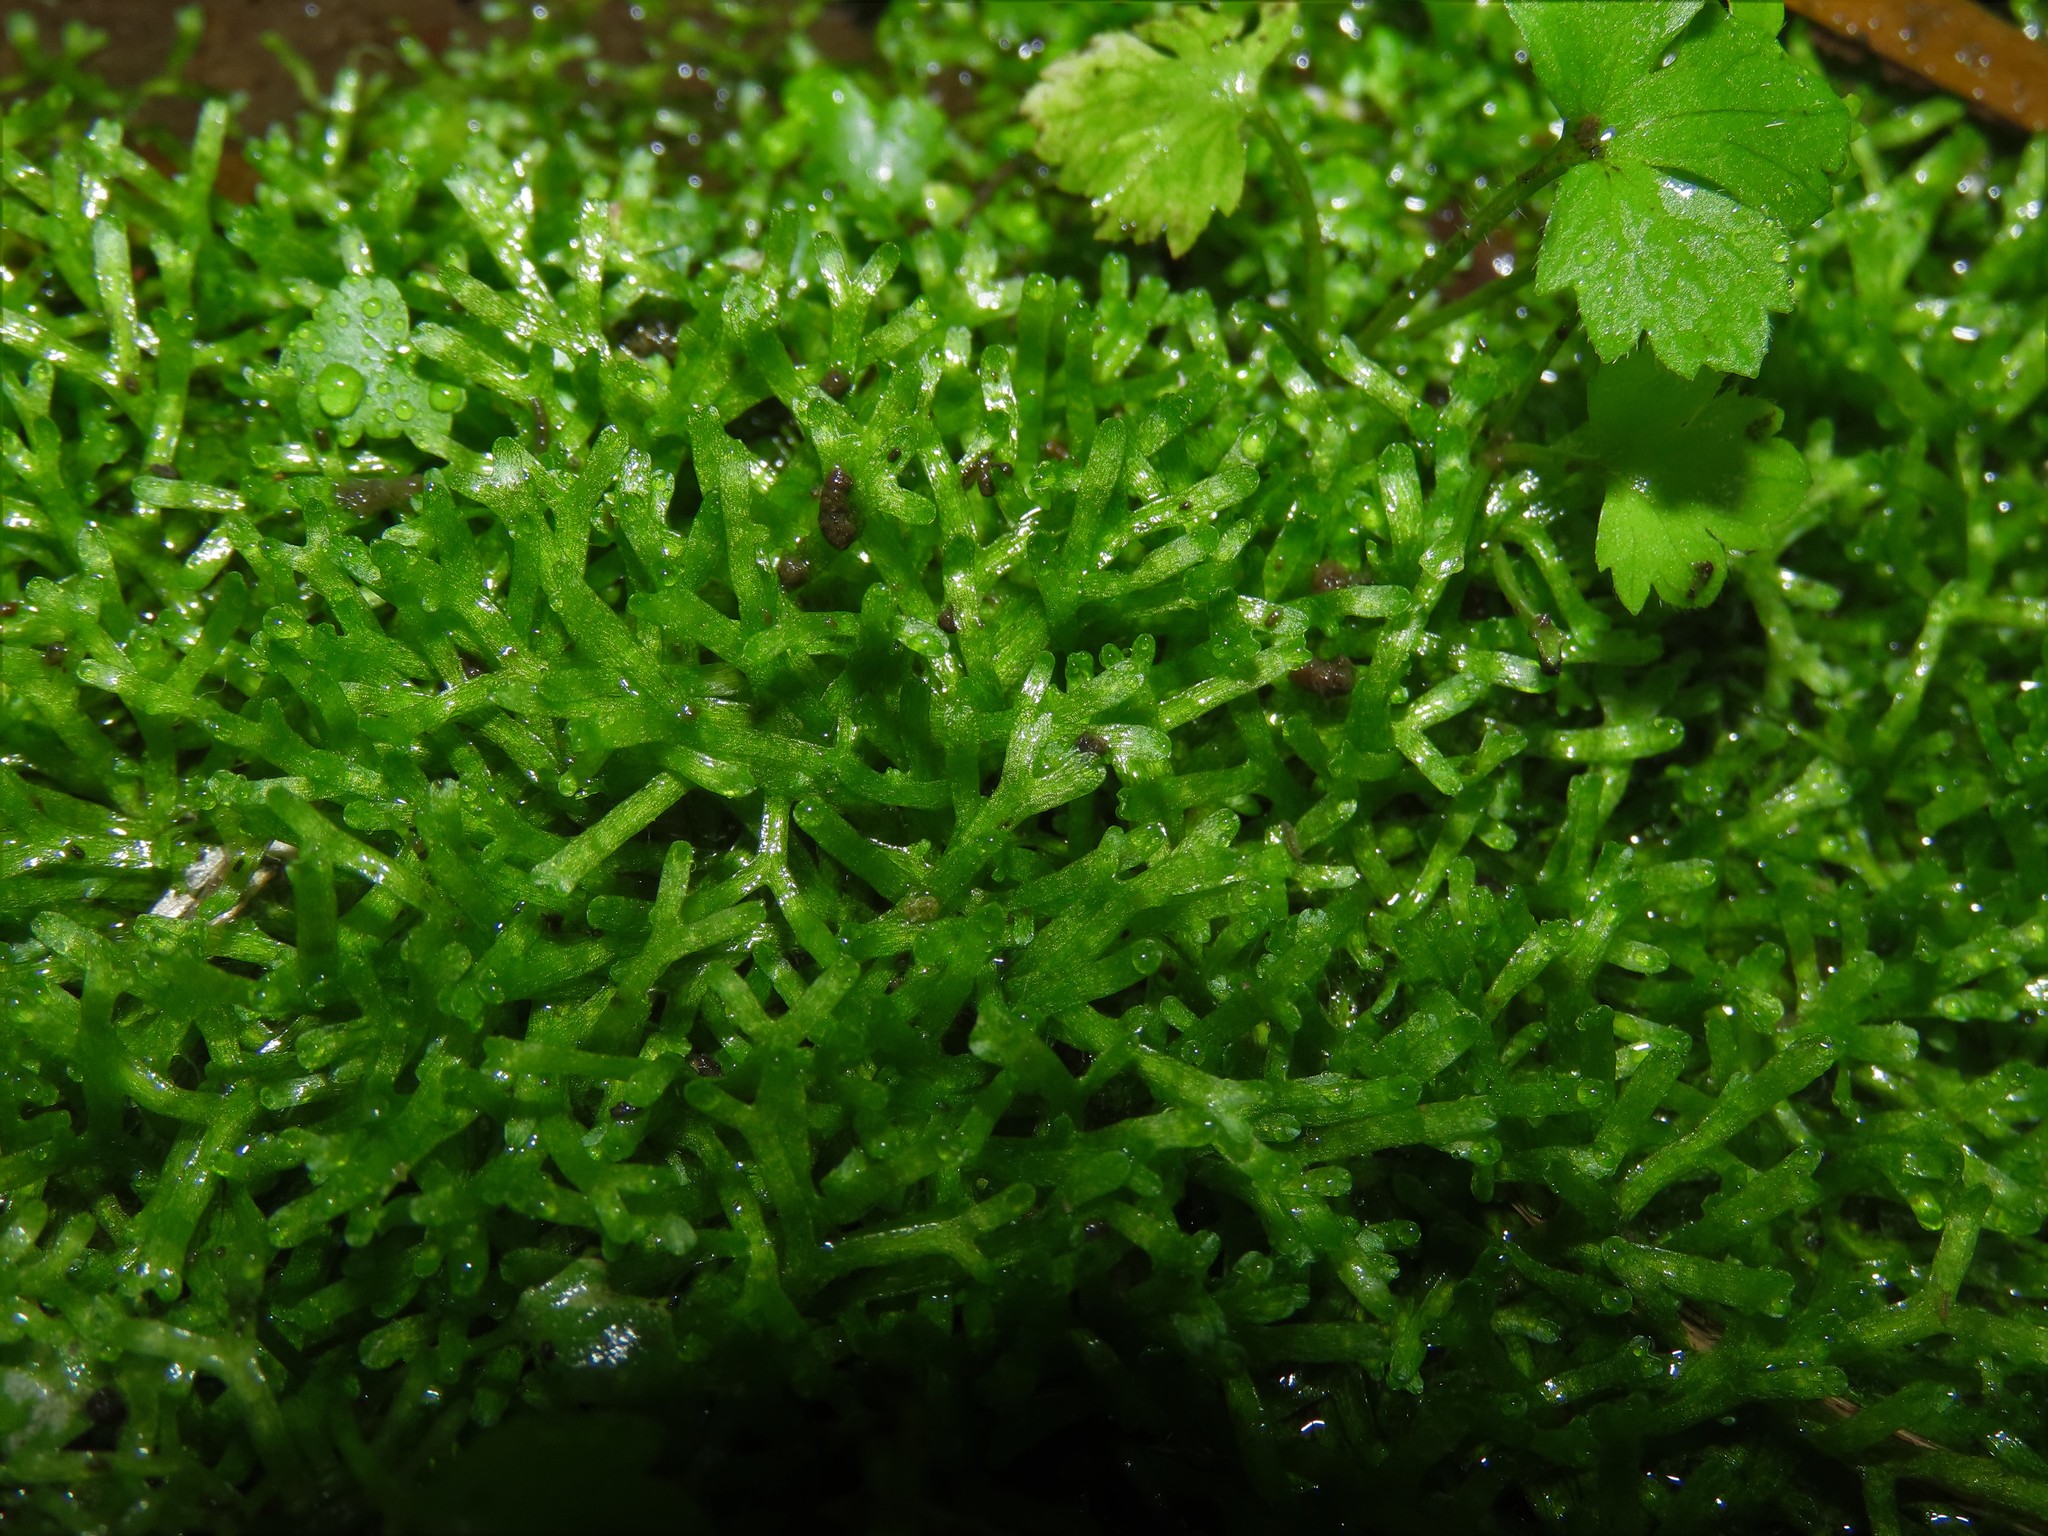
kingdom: Plantae
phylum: Marchantiophyta
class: Marchantiopsida
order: Marchantiales
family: Ricciaceae
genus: Riccia
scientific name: Riccia fluitans
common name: Floating crystalwort
